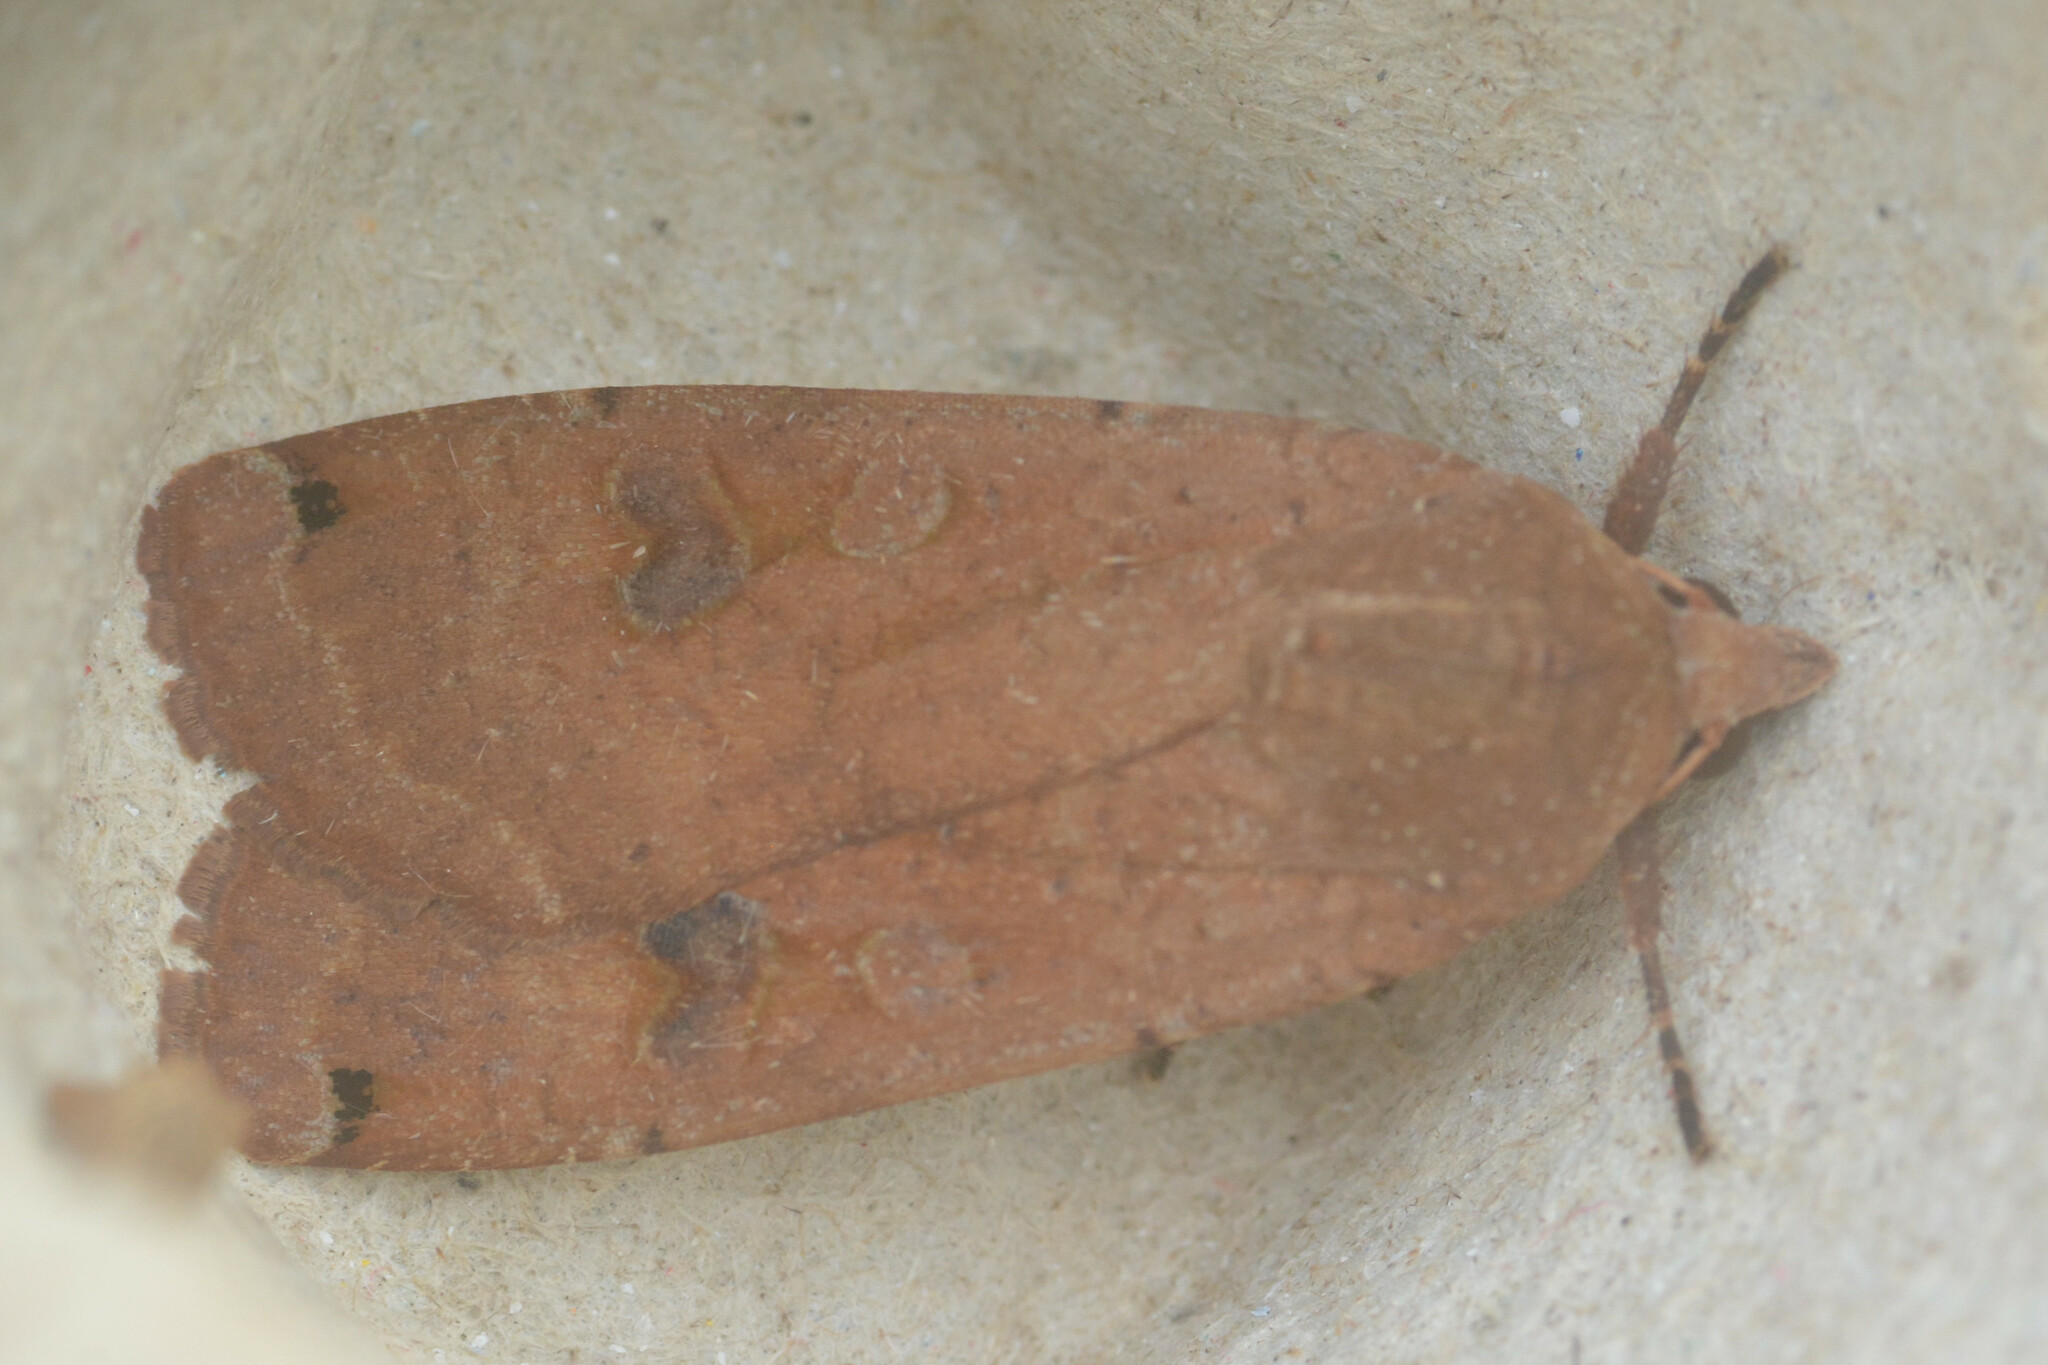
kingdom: Animalia
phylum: Arthropoda
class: Insecta
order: Lepidoptera
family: Noctuidae
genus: Noctua
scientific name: Noctua pronuba
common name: Large yellow underwing
